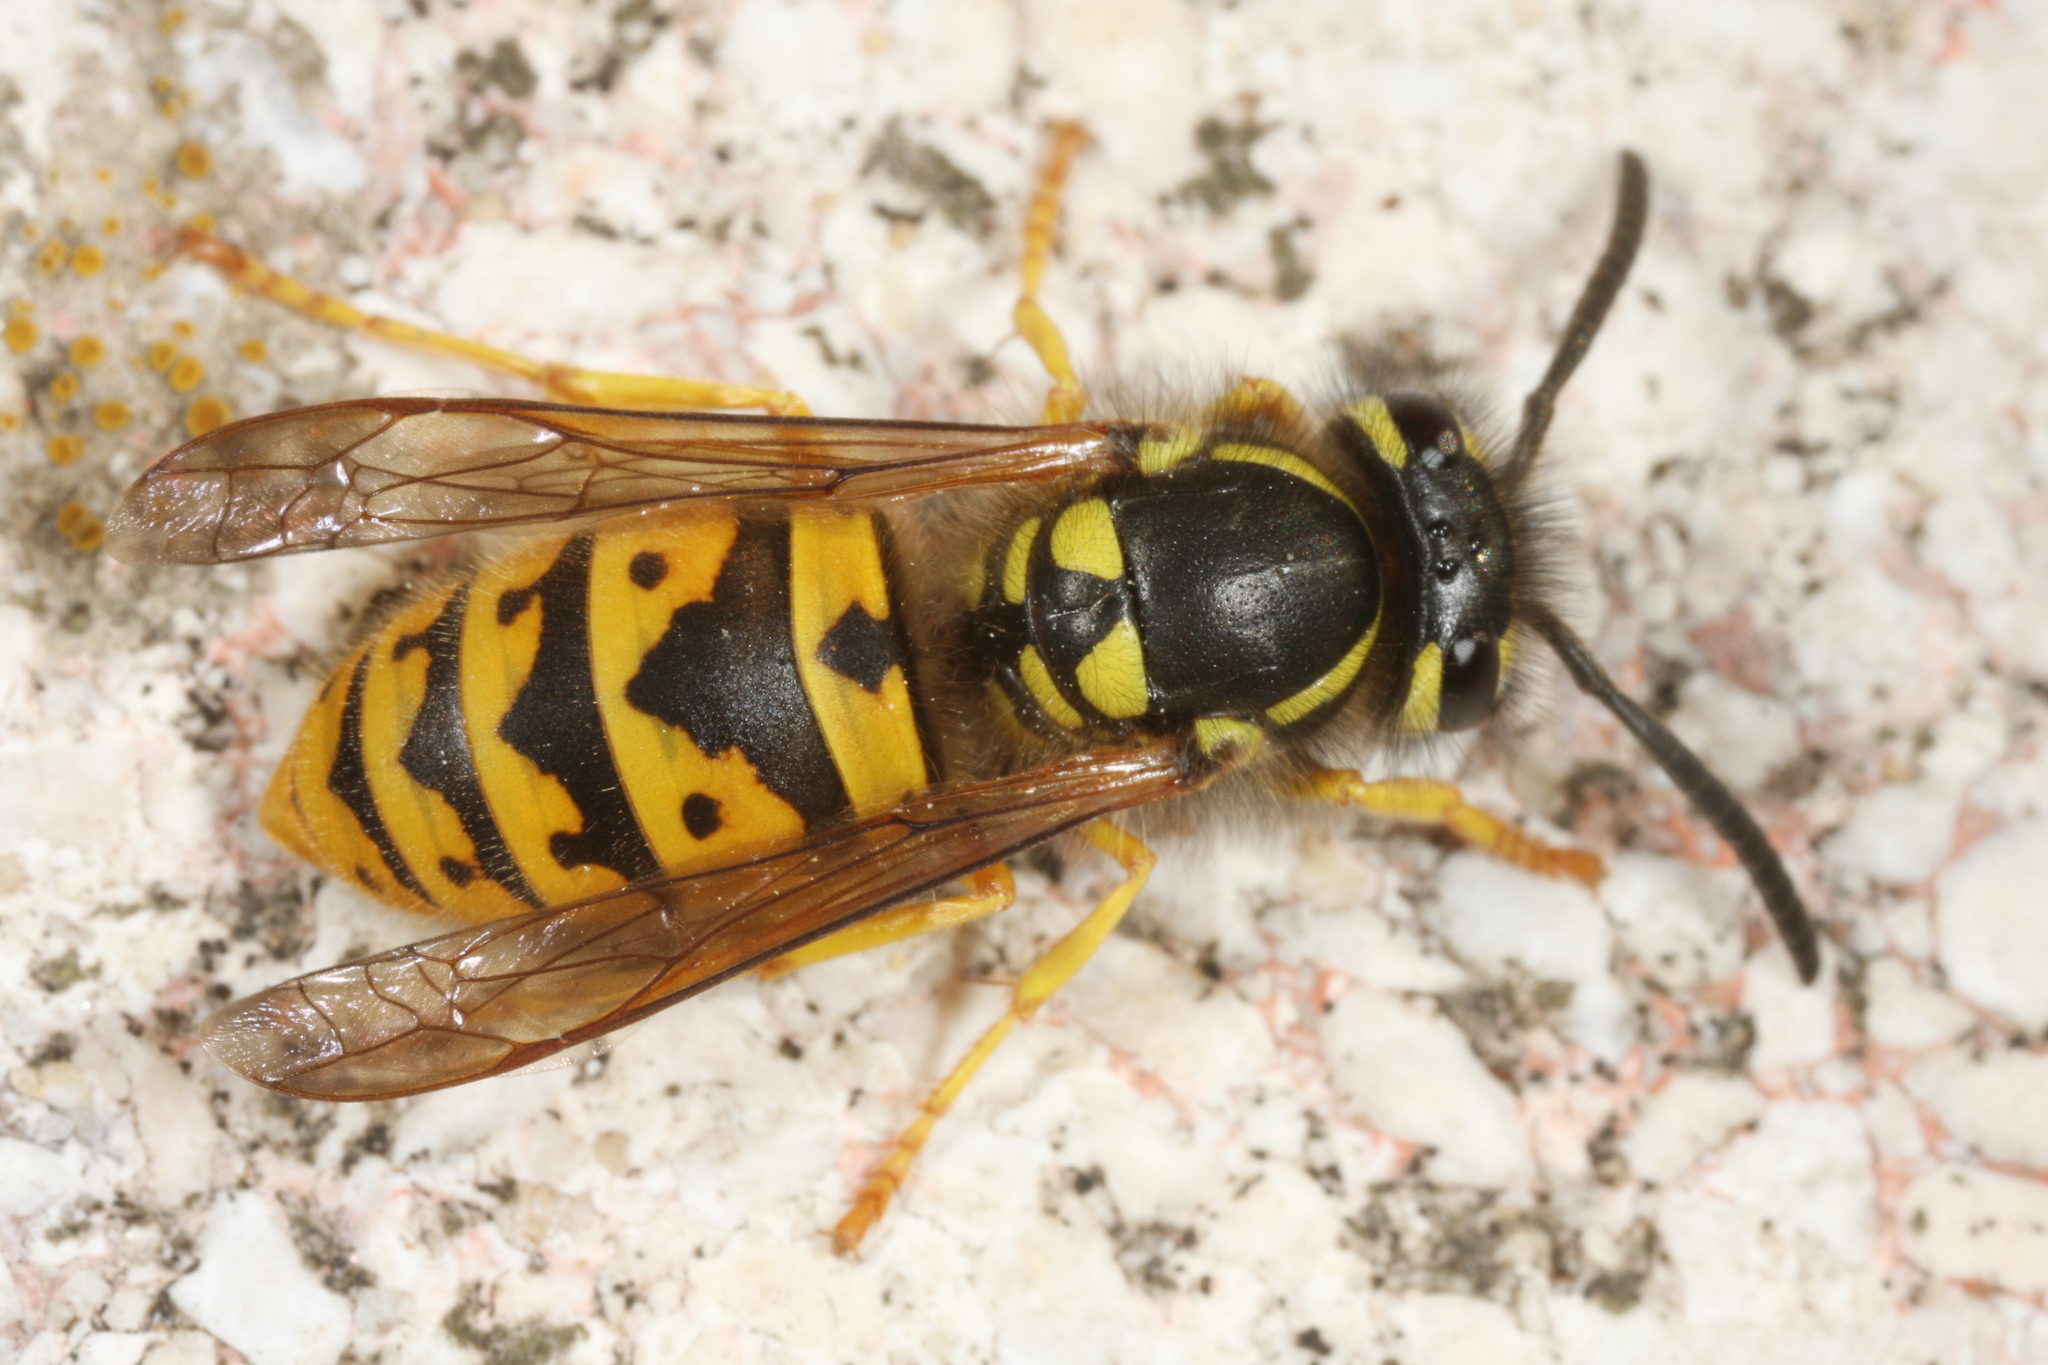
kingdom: Animalia
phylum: Arthropoda
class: Insecta
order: Hymenoptera
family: Vespidae
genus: Vespula
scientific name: Vespula germanica
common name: German wasp
